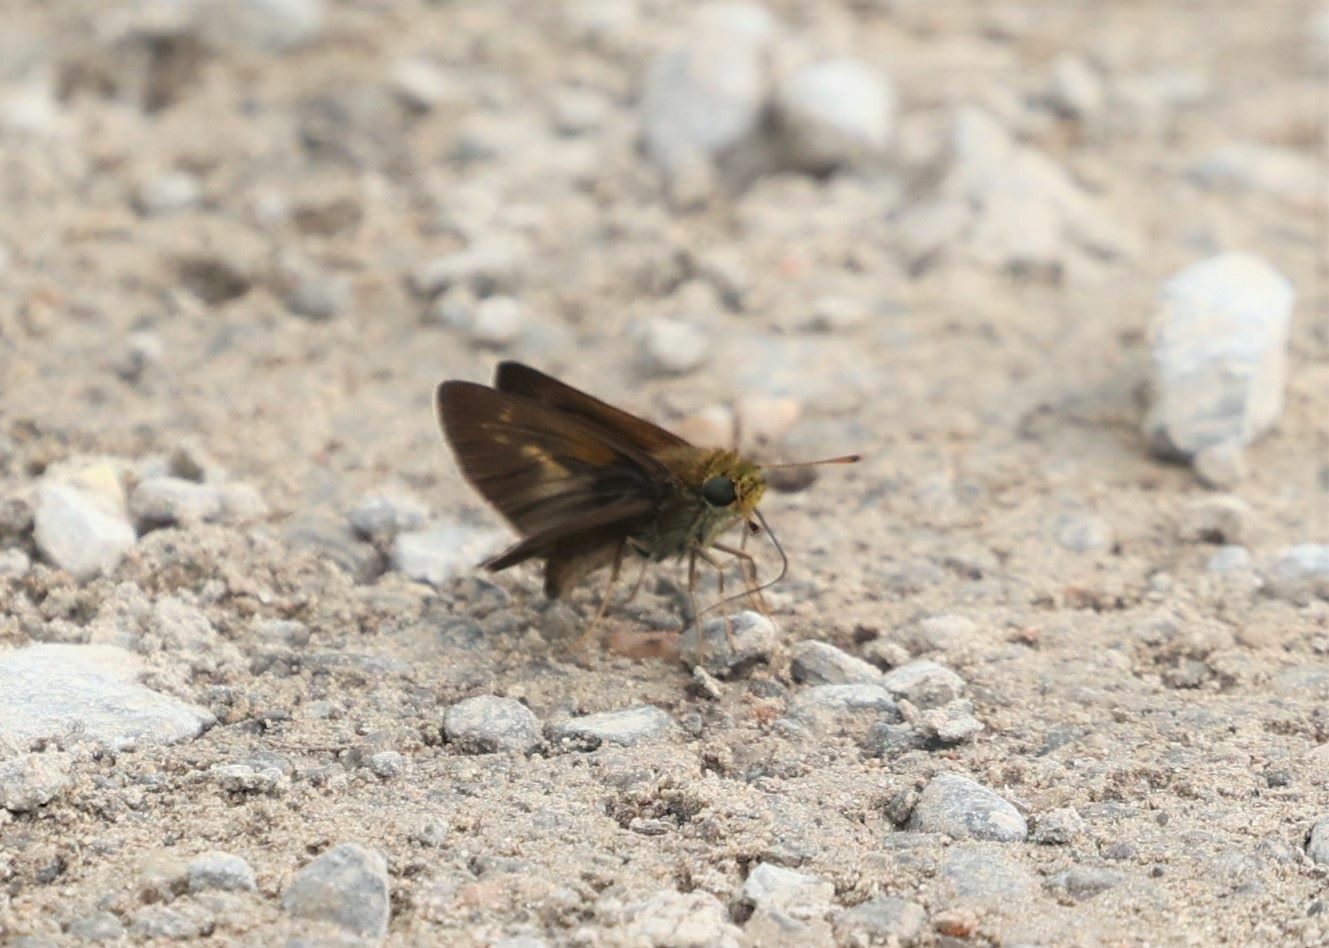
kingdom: Animalia
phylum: Arthropoda
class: Insecta
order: Lepidoptera
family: Hesperiidae
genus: Euphyes
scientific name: Euphyes vestris
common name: Dun skipper
